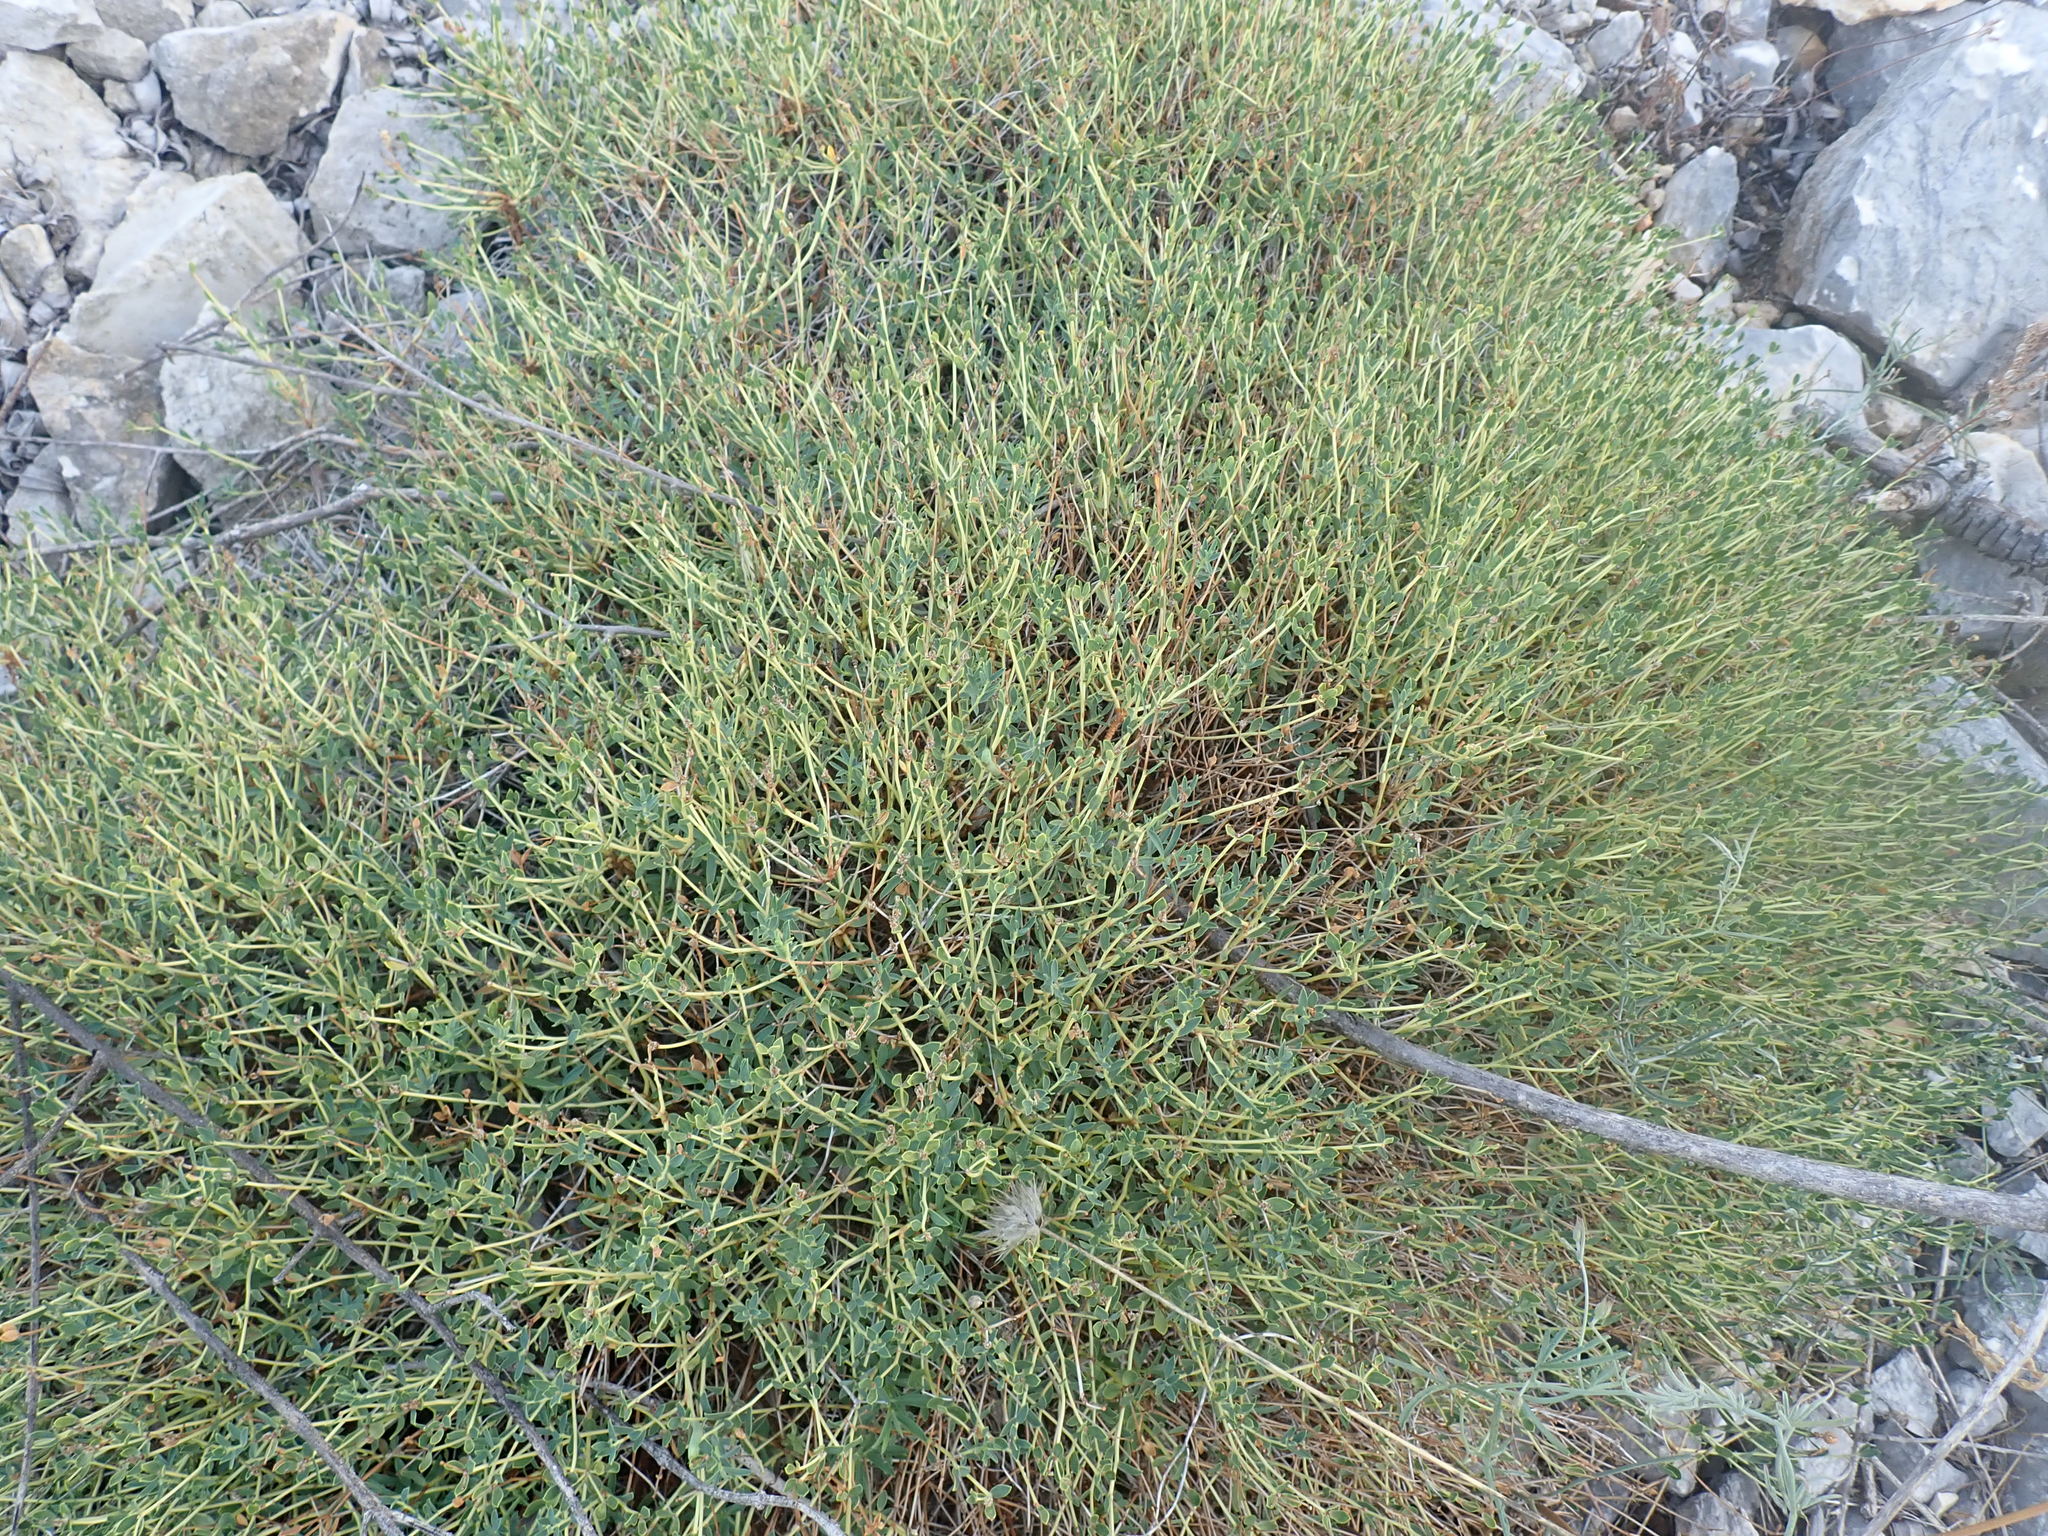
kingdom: Plantae
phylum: Tracheophyta
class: Magnoliopsida
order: Malpighiales
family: Euphorbiaceae
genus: Euphorbia
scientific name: Euphorbia spinosa
